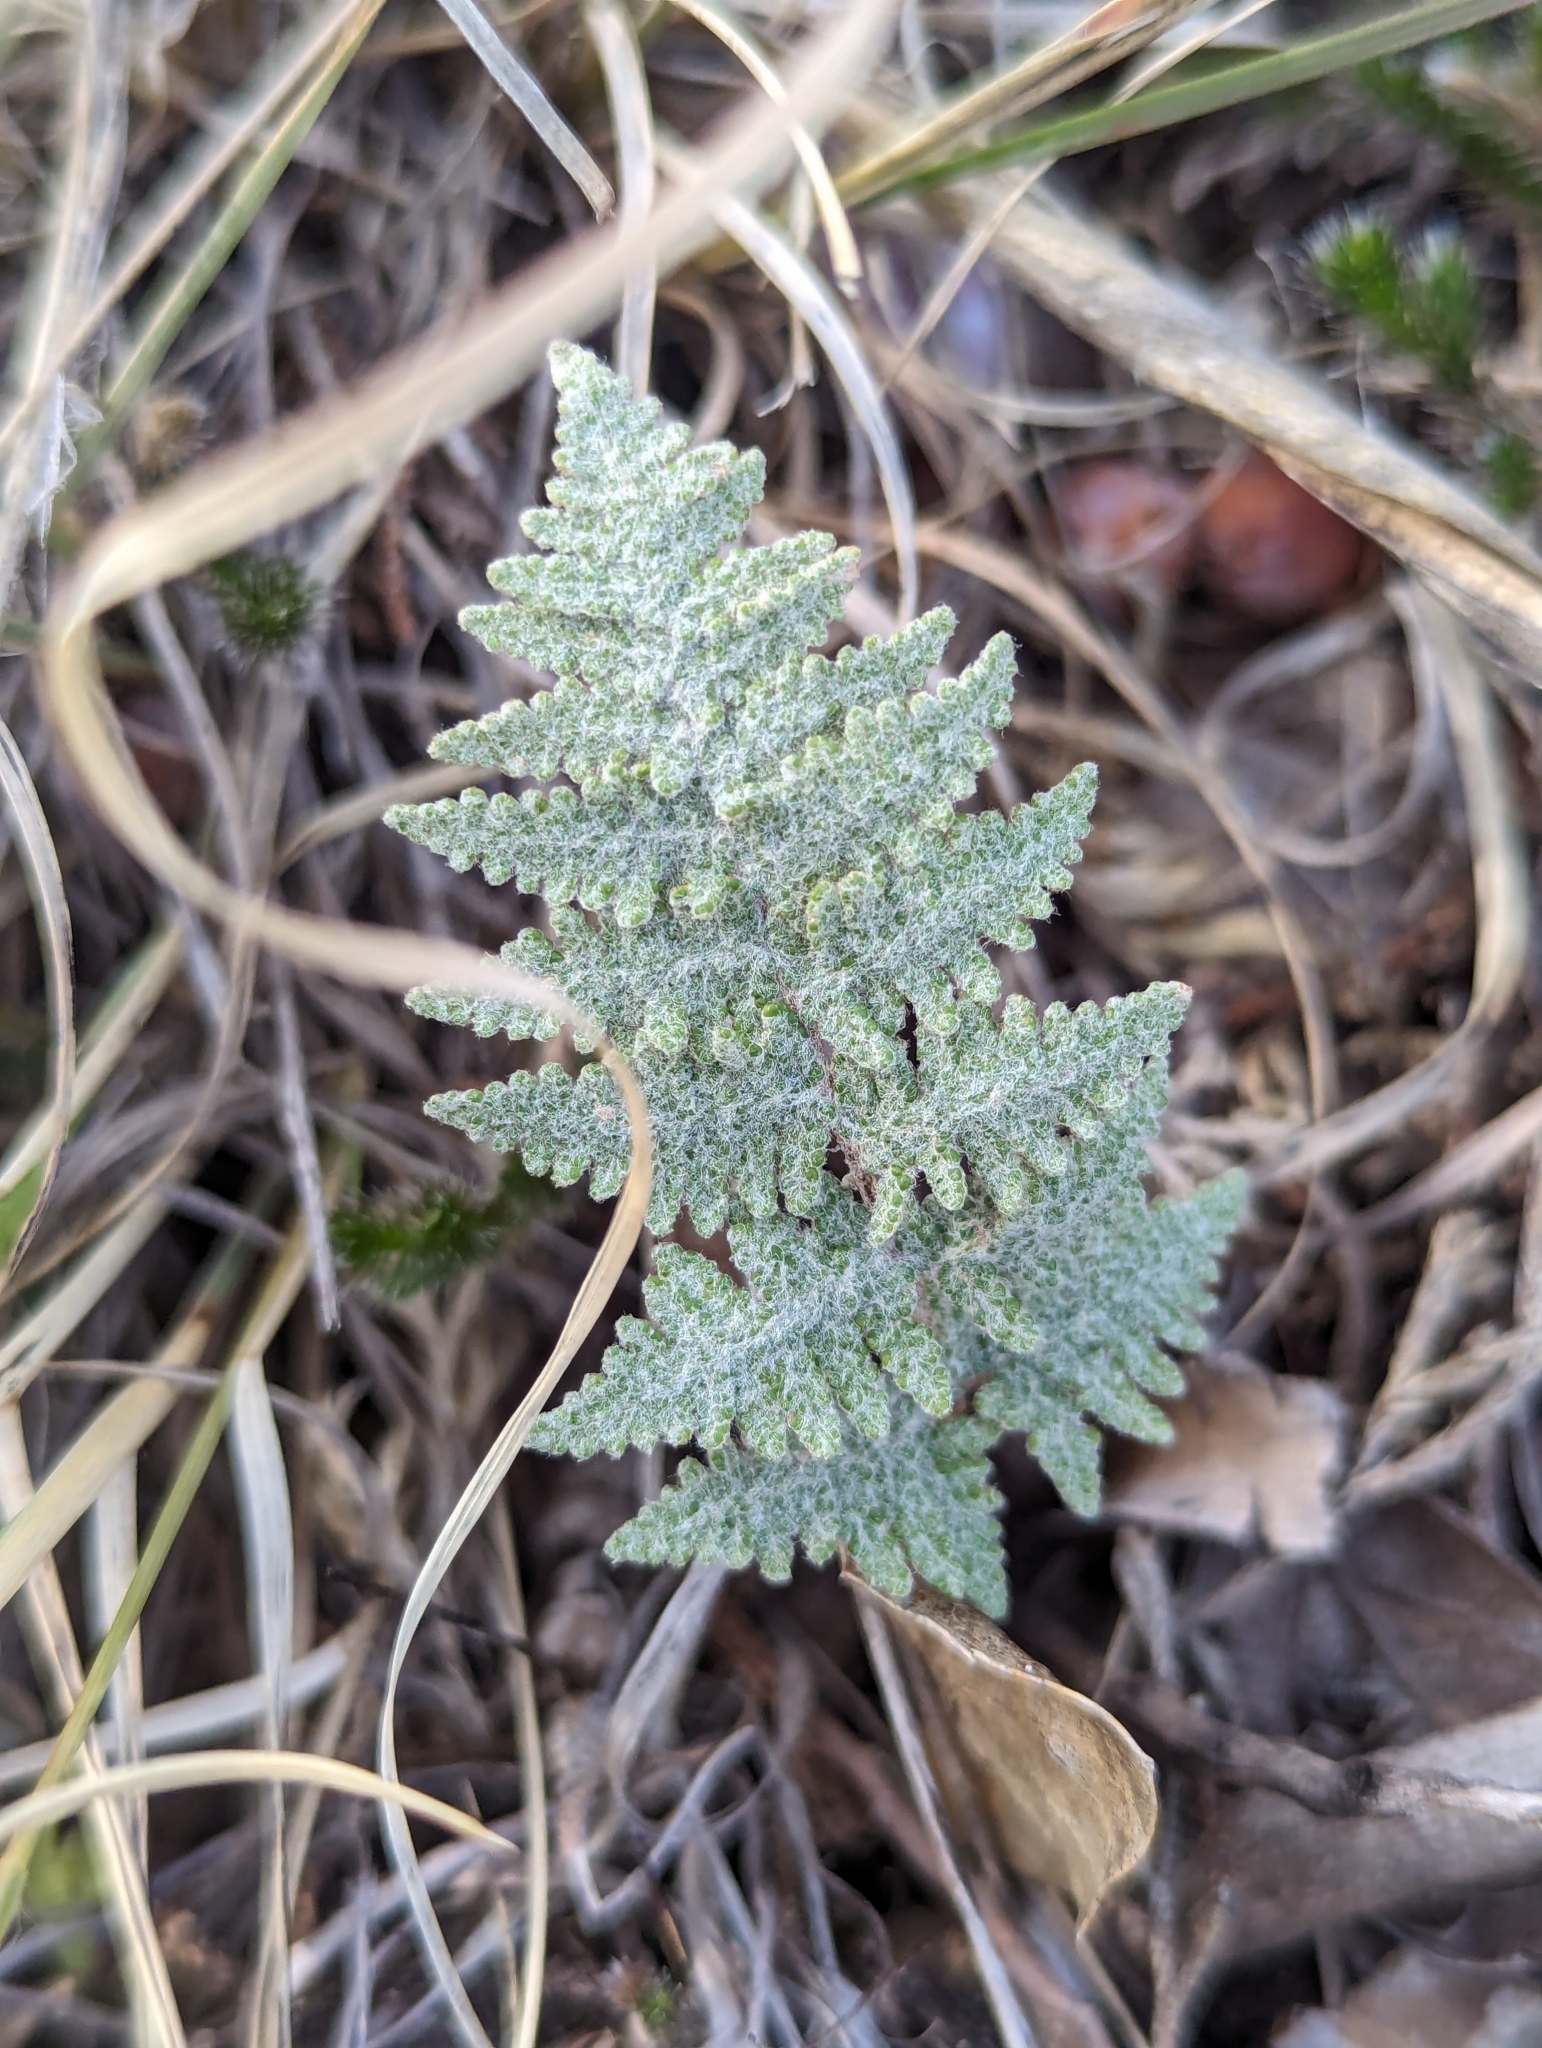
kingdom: Plantae
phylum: Tracheophyta
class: Polypodiopsida
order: Polypodiales
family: Pteridaceae
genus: Myriopteris
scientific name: Myriopteris lindheimeri
